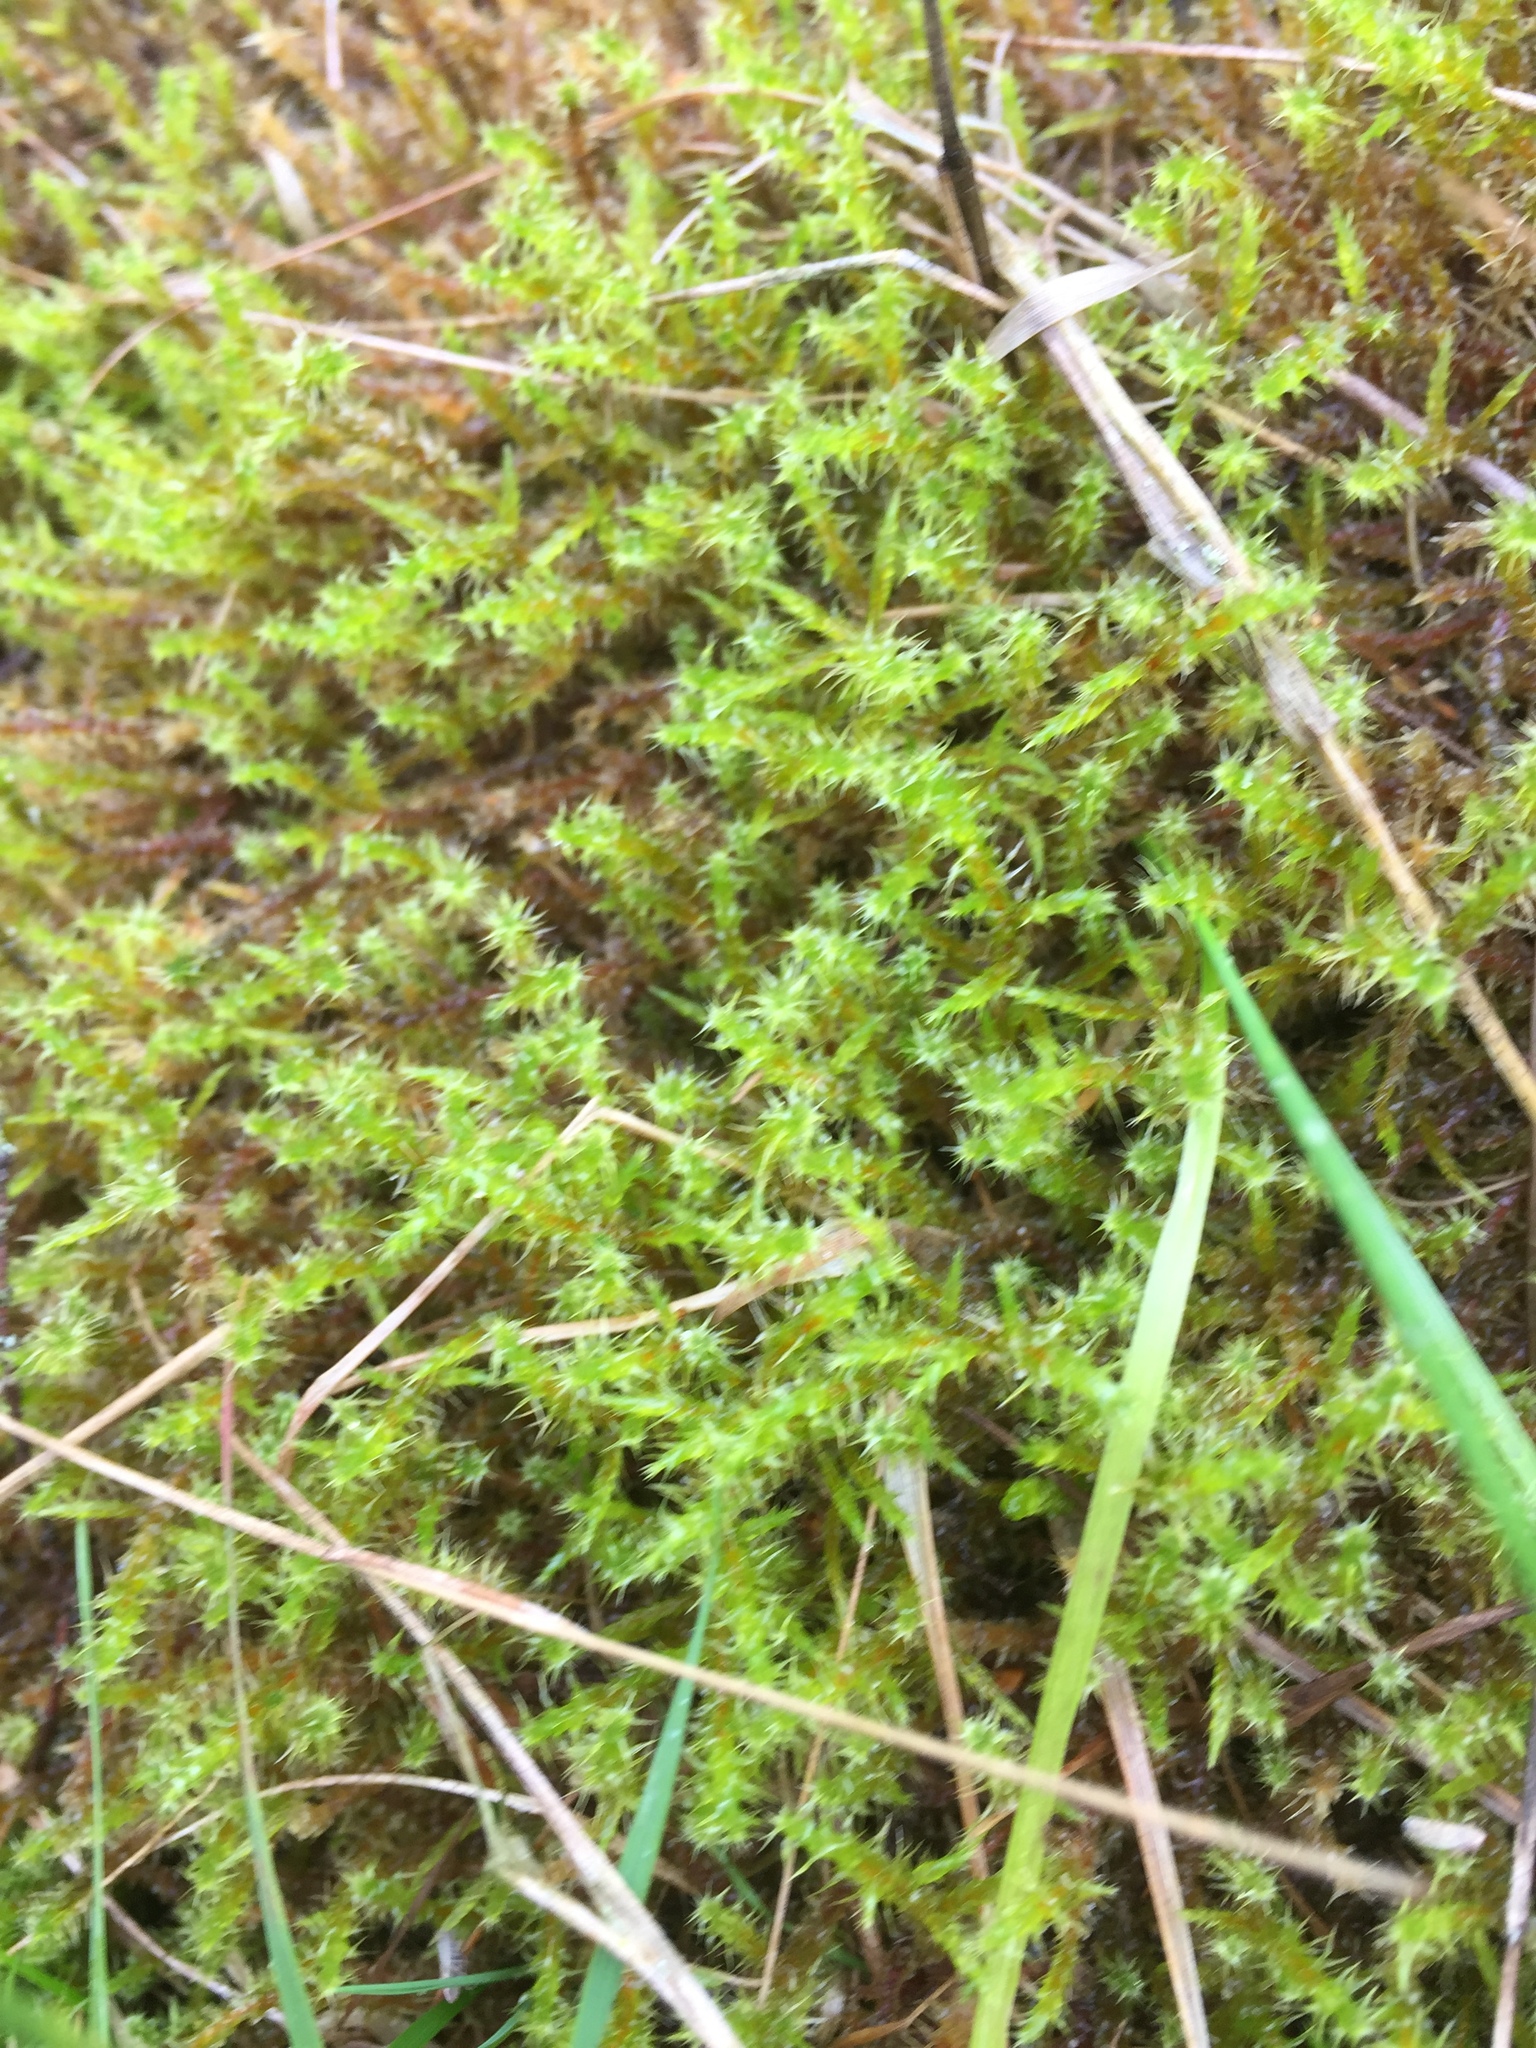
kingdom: Plantae
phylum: Bryophyta
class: Bryopsida
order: Hypnales
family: Hylocomiaceae
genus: Rhytidiadelphus
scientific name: Rhytidiadelphus squarrosus
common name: Springy turf-moss
